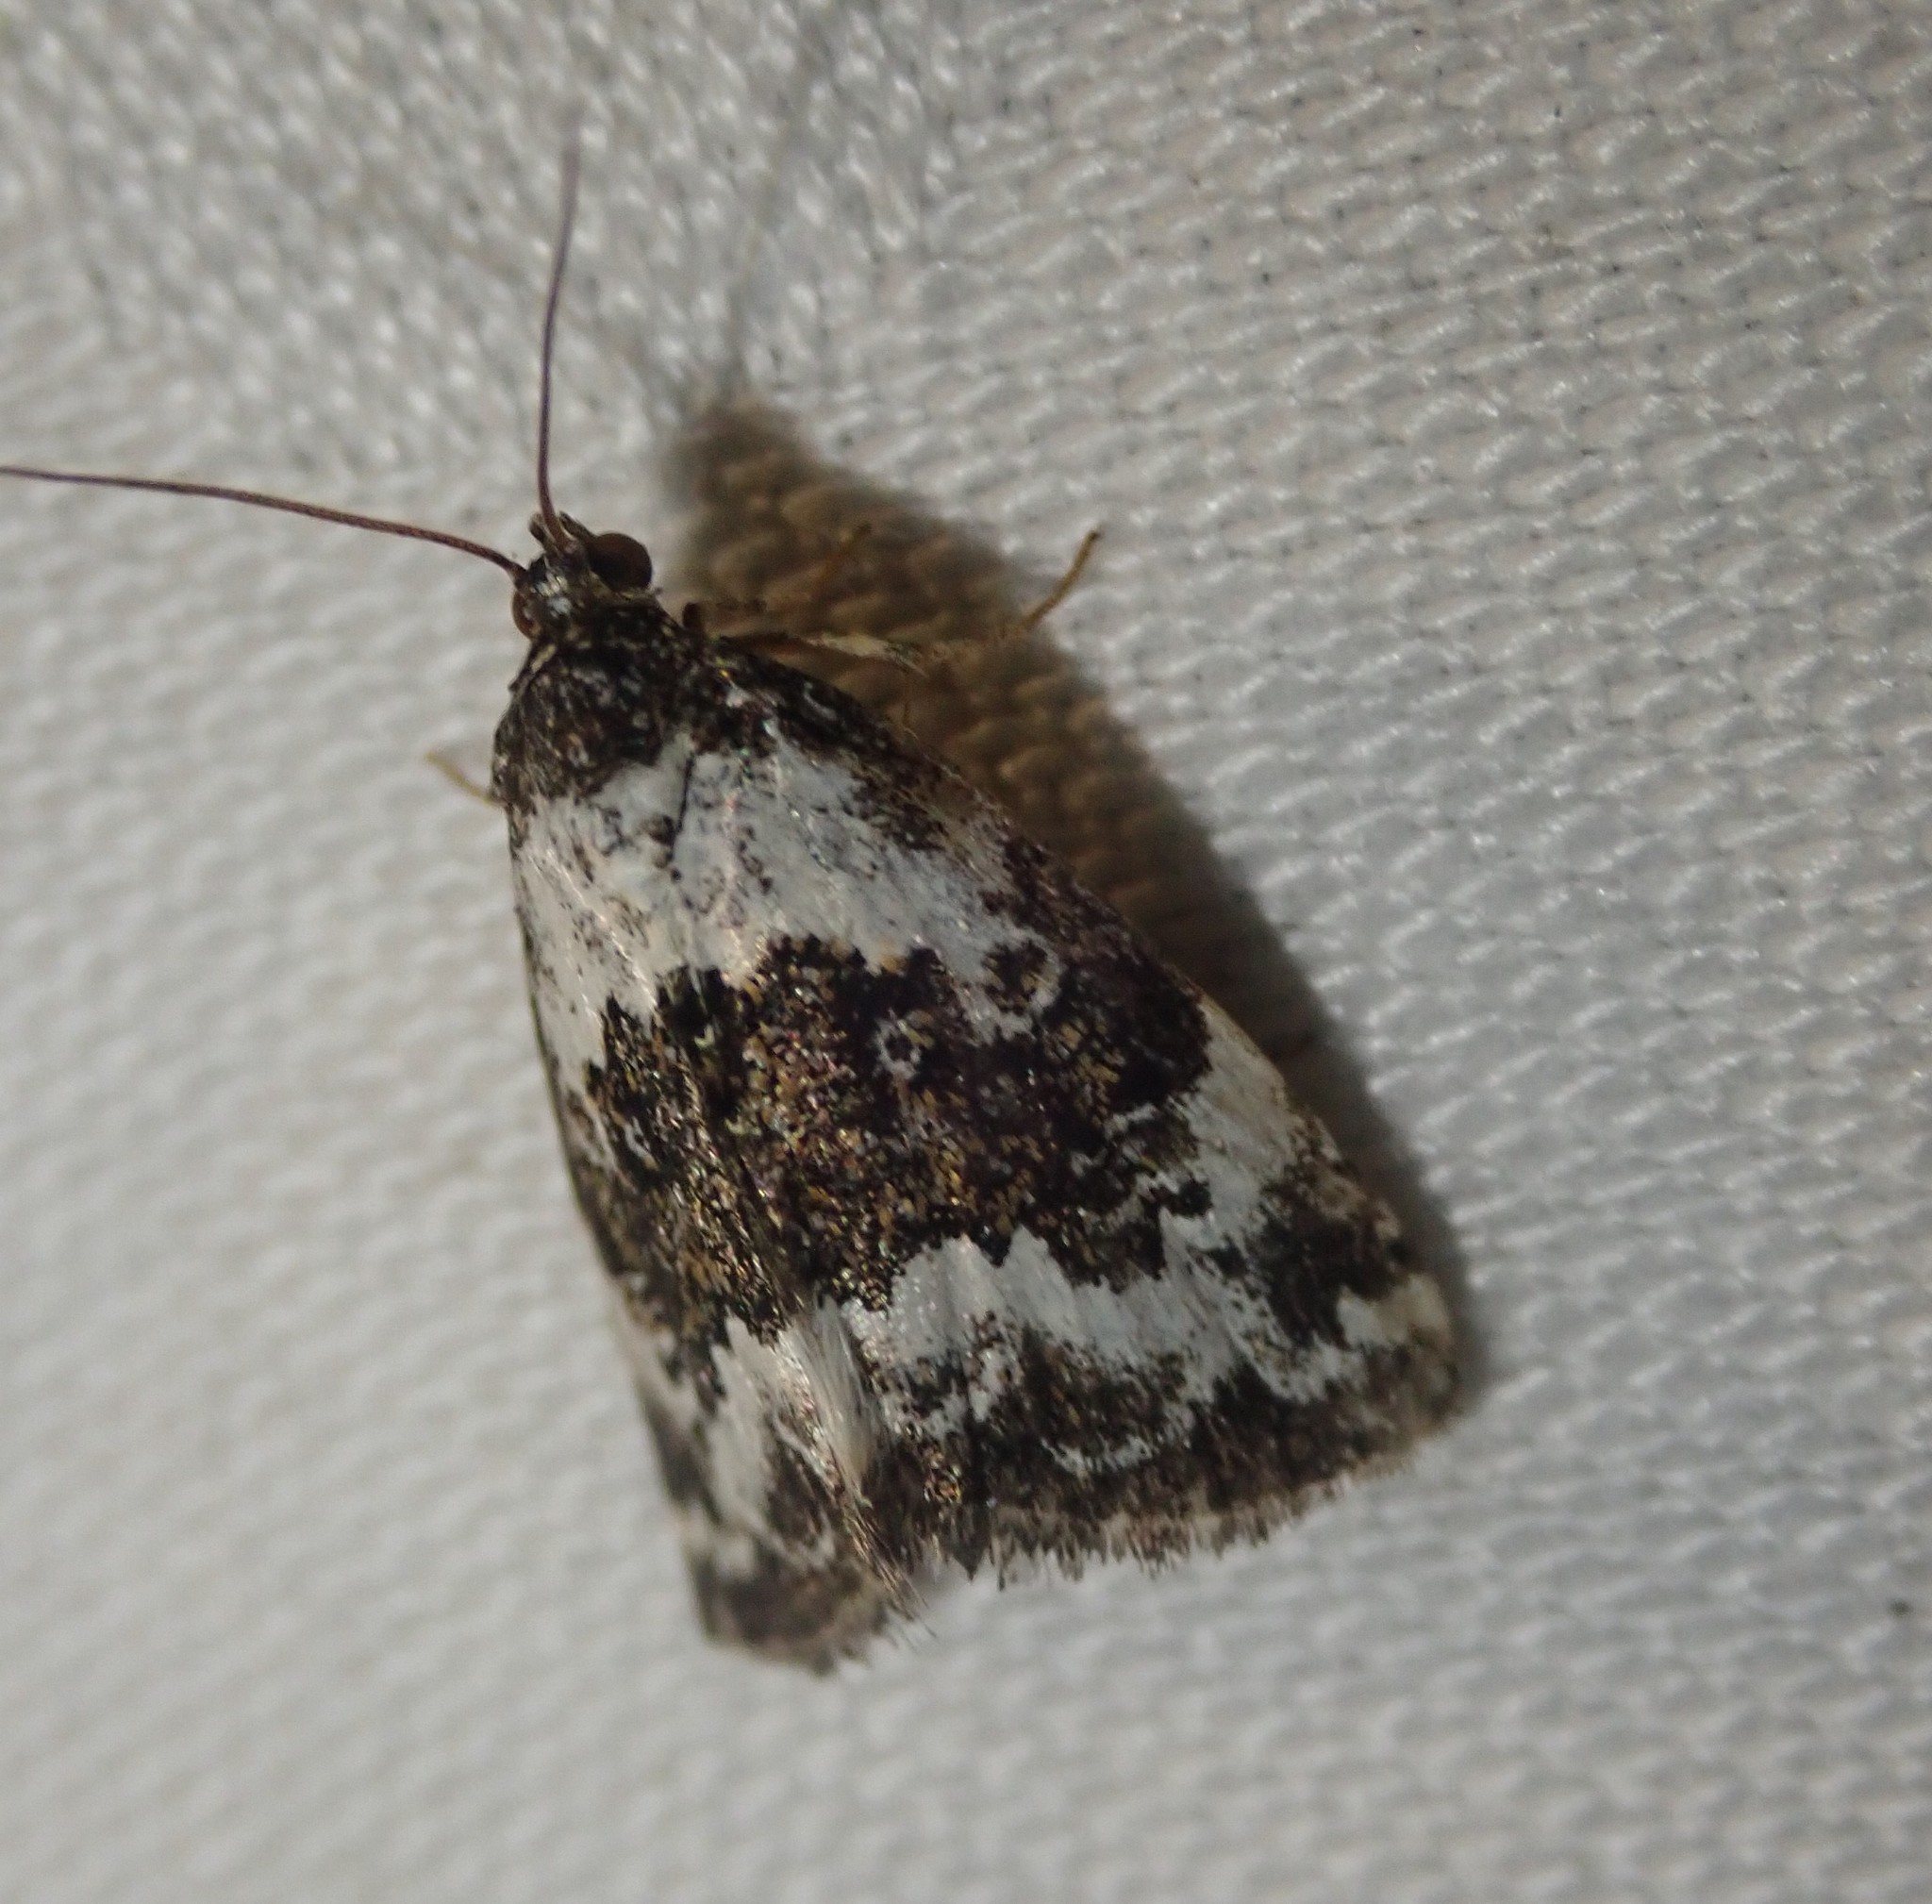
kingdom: Animalia
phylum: Arthropoda
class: Insecta
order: Lepidoptera
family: Noctuidae
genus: Deltote
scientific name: Deltote deceptoria
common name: Pretty marbled
